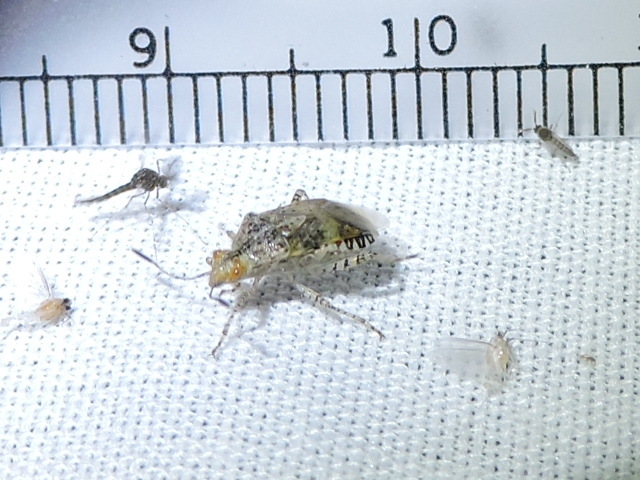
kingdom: Animalia
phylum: Arthropoda
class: Insecta
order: Hemiptera
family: Rhopalidae
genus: Niesthrea
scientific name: Niesthrea louisianica
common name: Scentless plant bug
